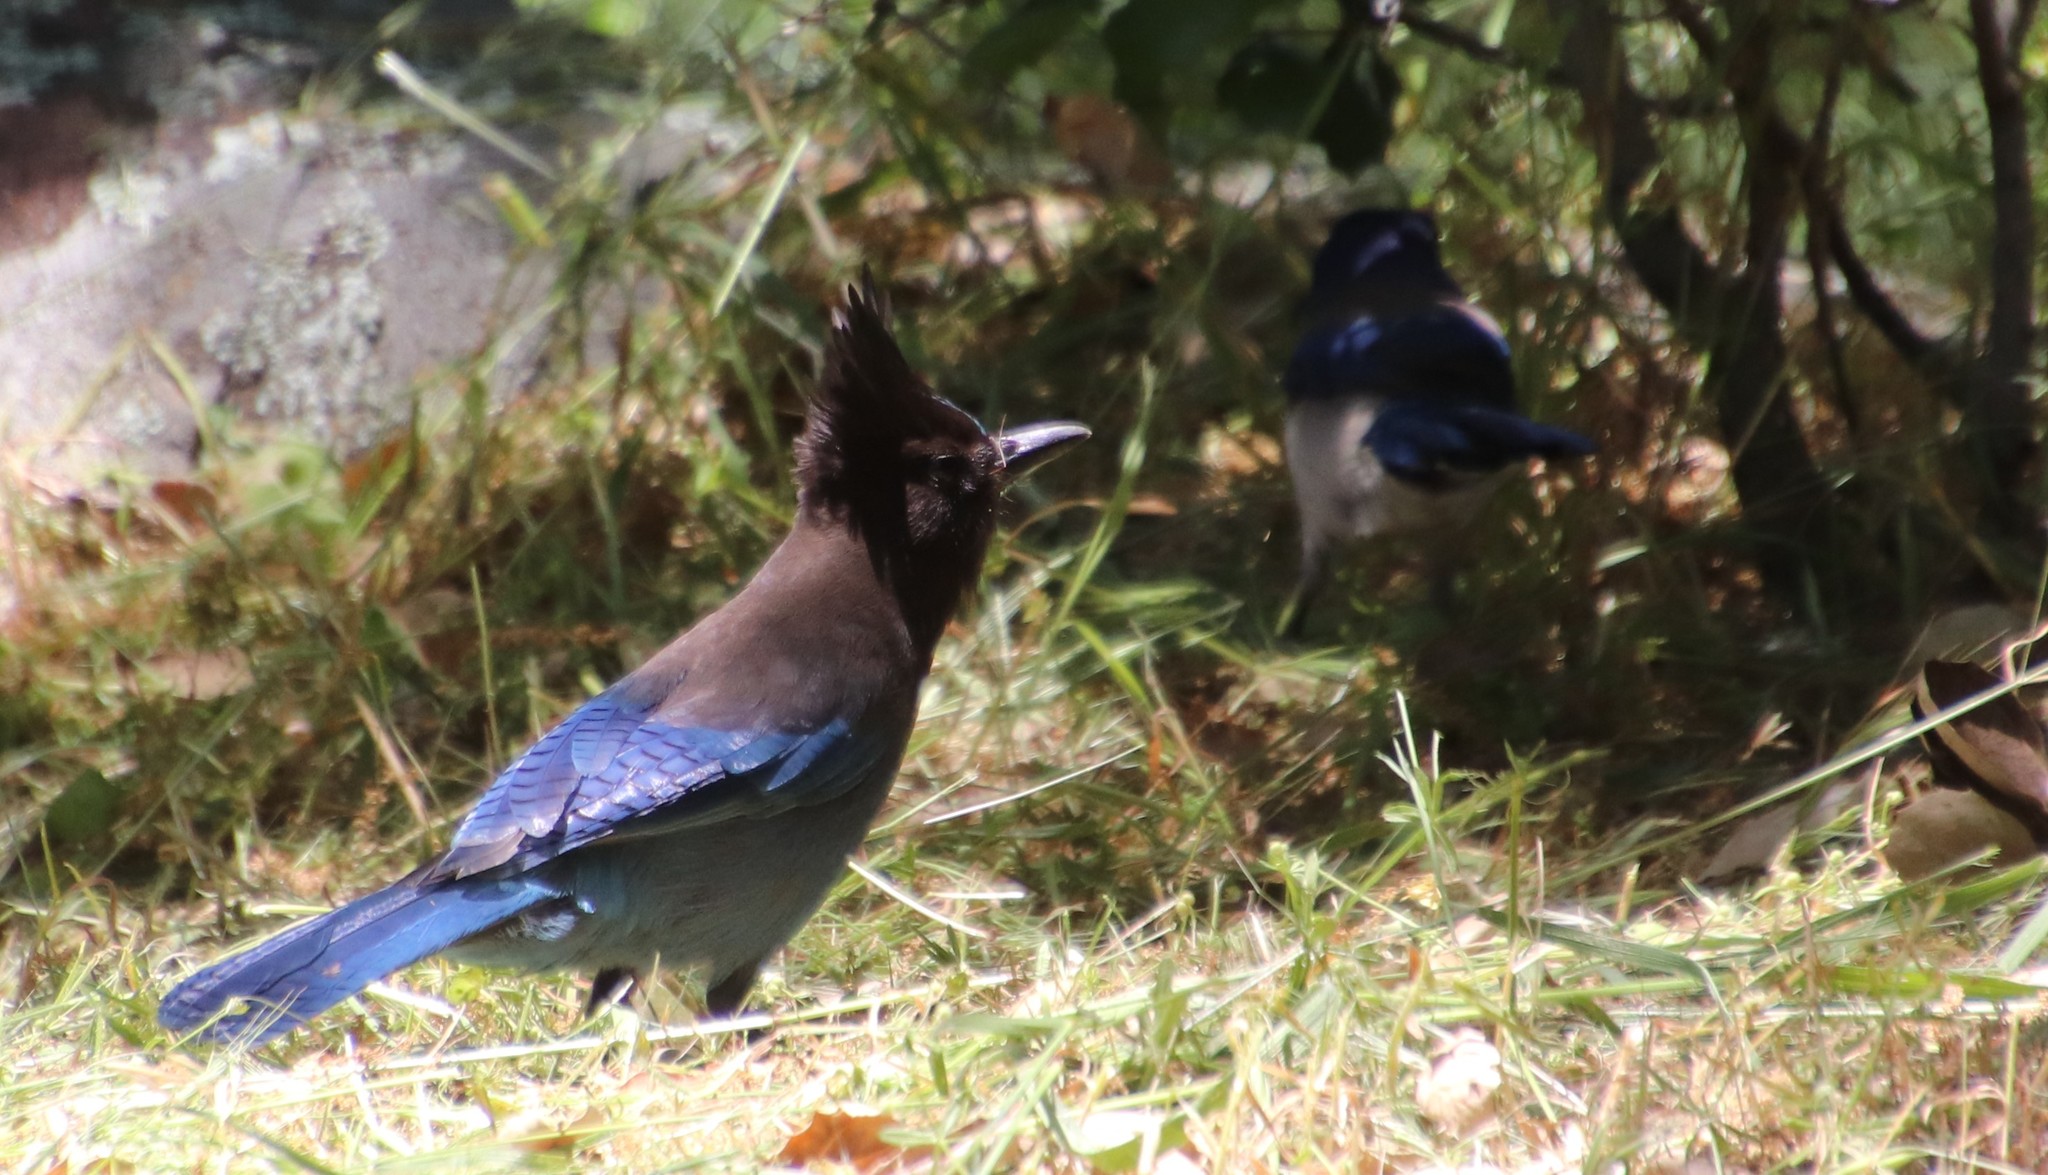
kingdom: Animalia
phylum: Chordata
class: Aves
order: Passeriformes
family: Corvidae
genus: Cyanocitta
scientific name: Cyanocitta stelleri
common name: Steller's jay
